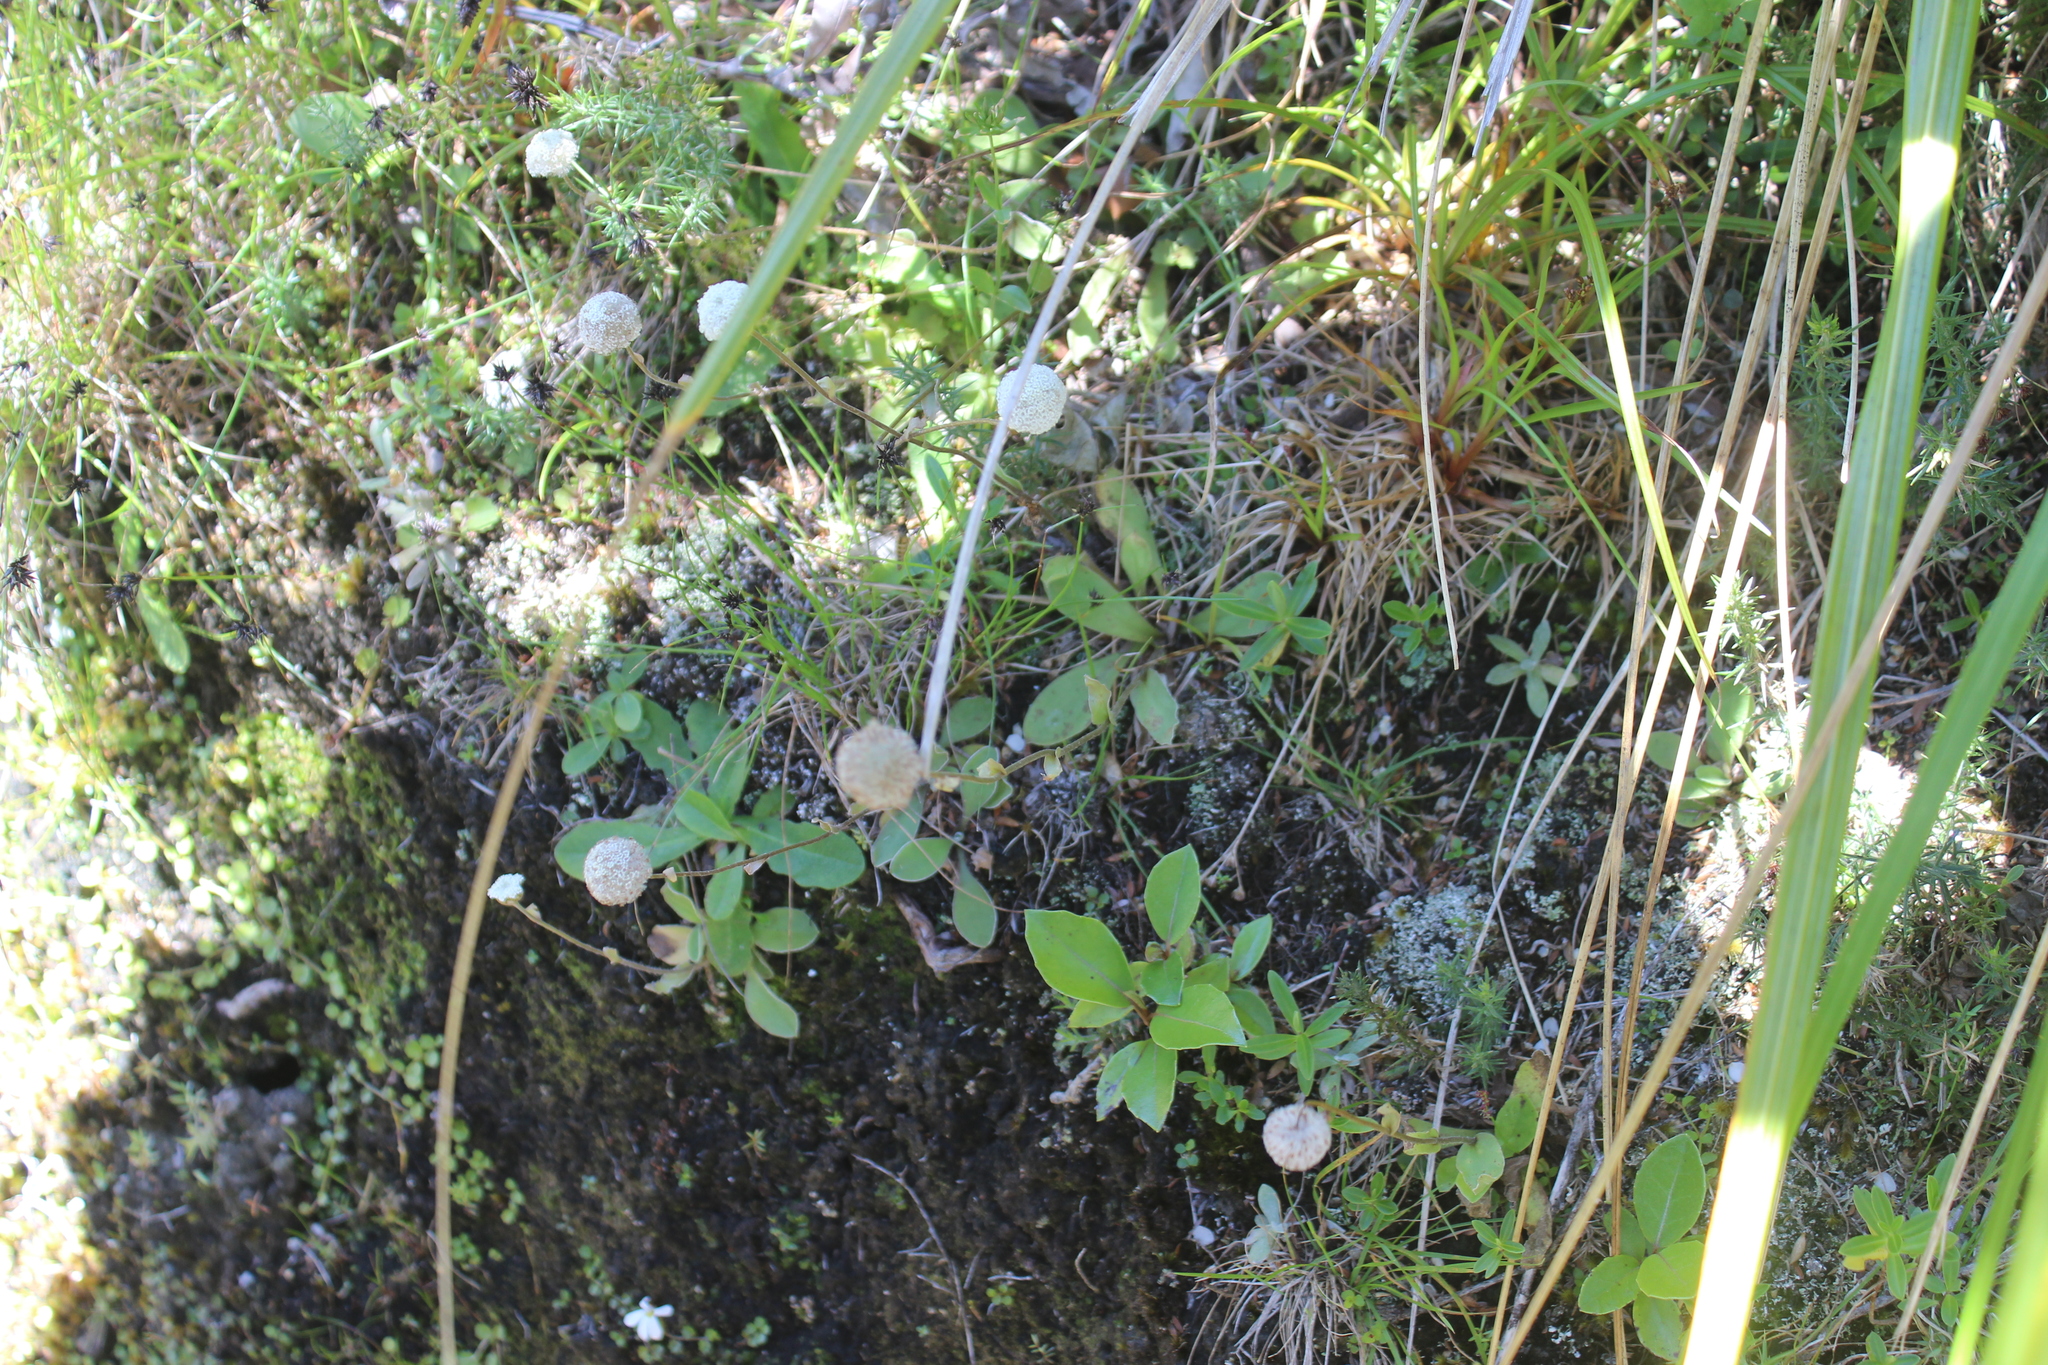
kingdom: Plantae
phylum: Tracheophyta
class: Magnoliopsida
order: Asterales
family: Asteraceae
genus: Craspedia
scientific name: Craspedia uniflora
